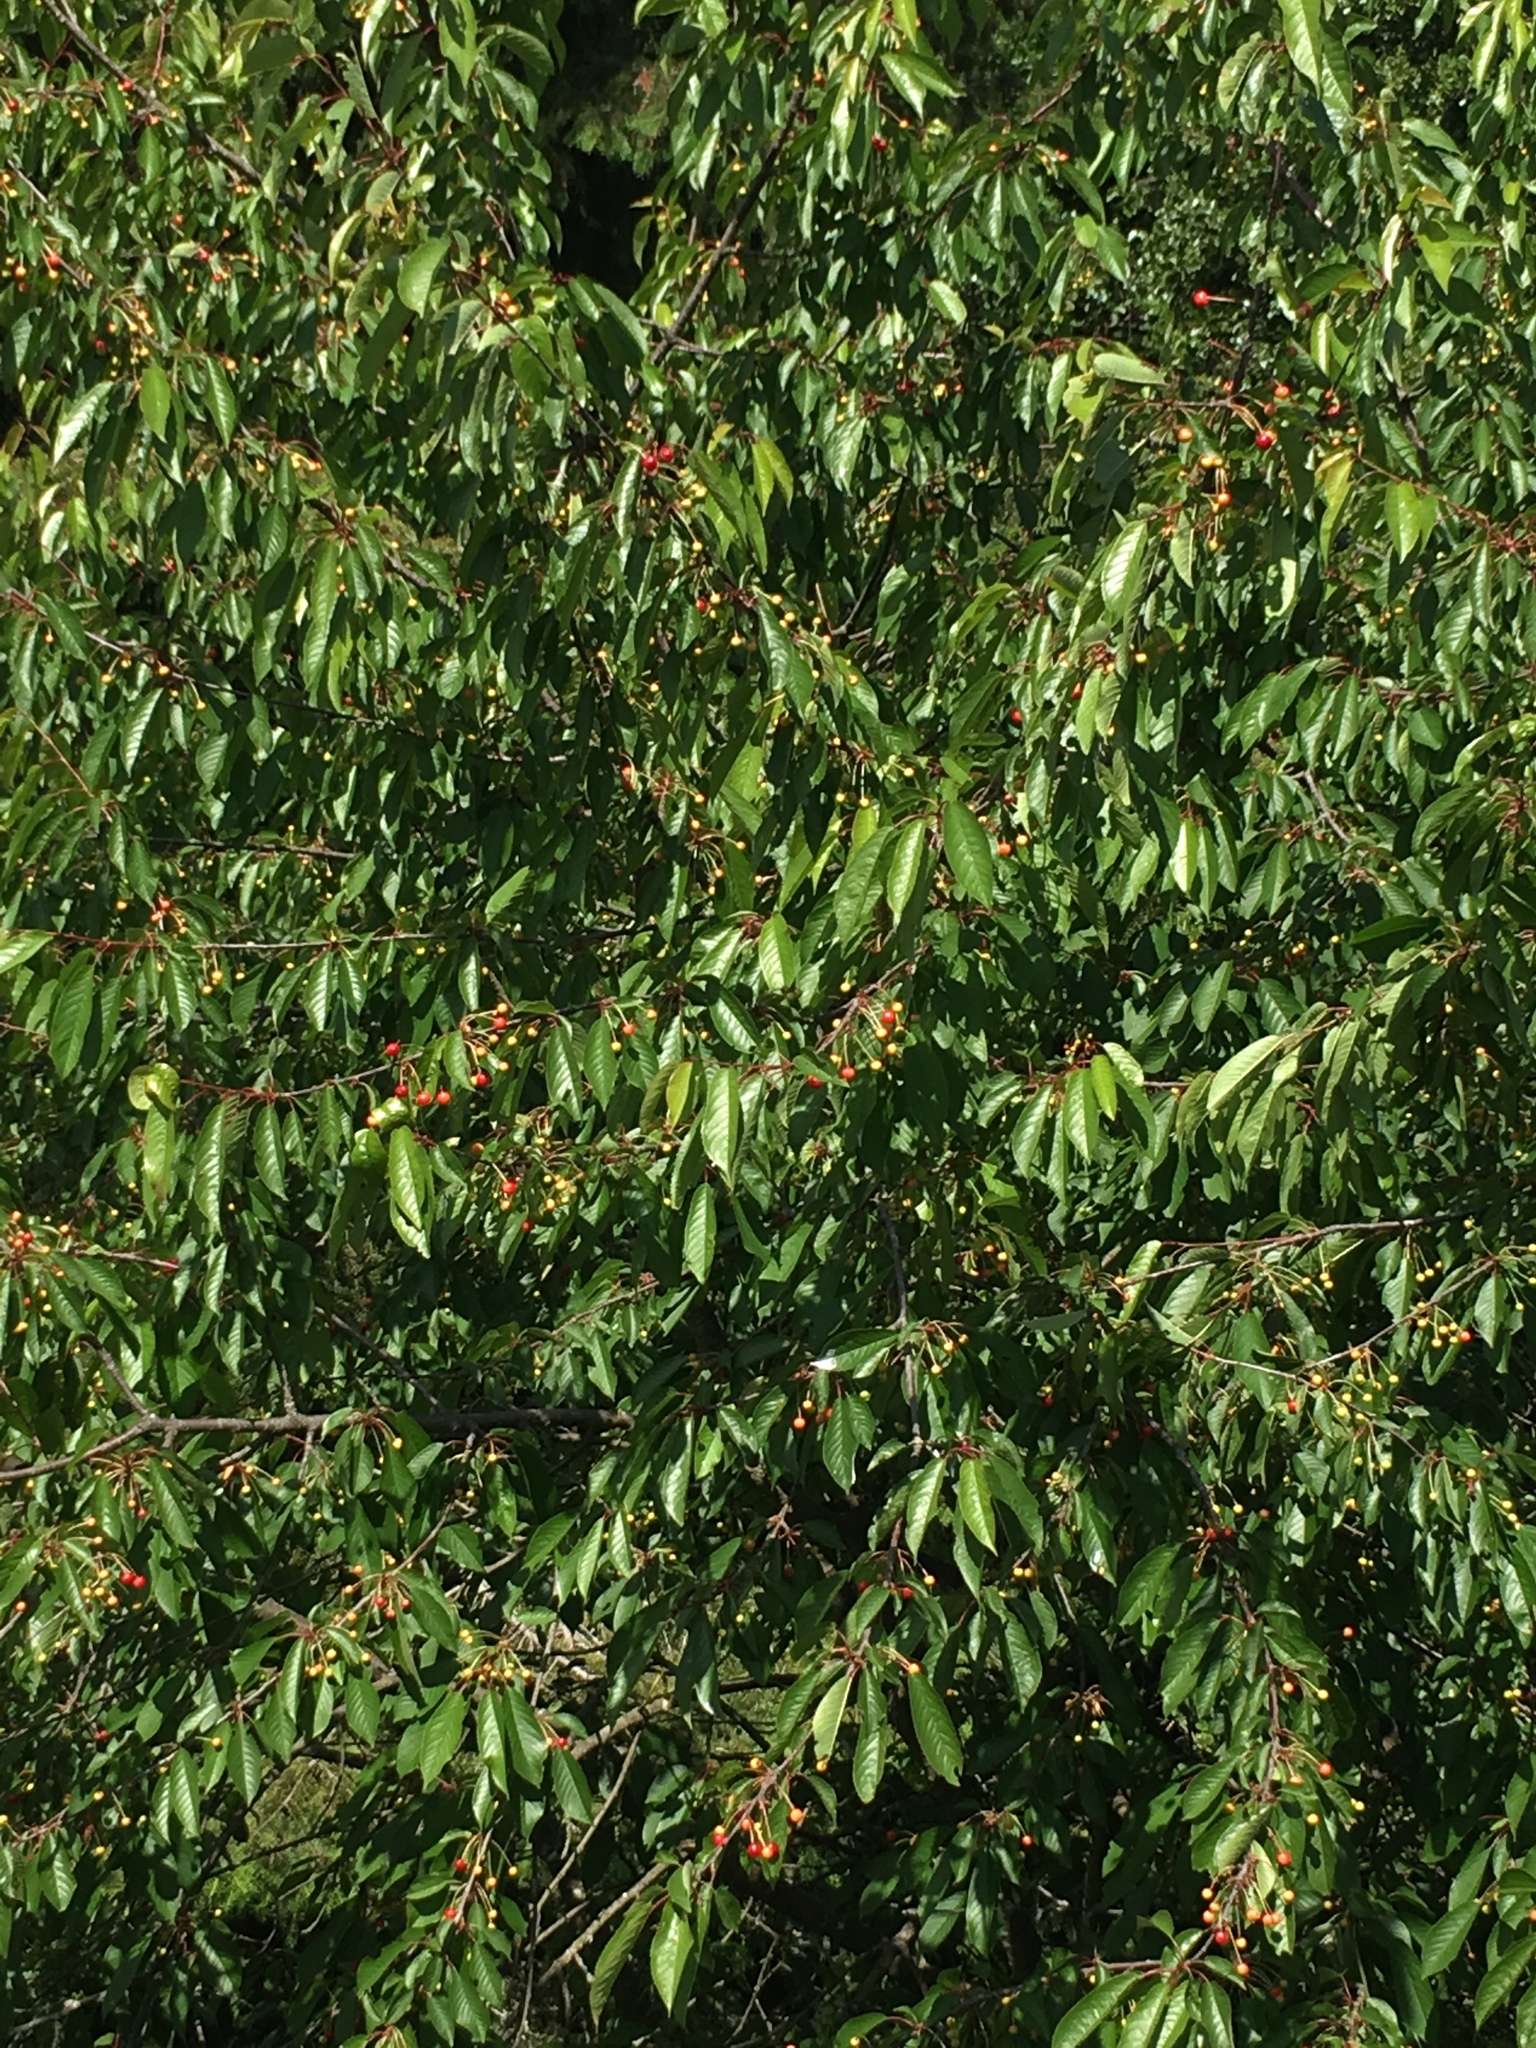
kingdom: Plantae
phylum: Tracheophyta
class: Magnoliopsida
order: Rosales
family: Rosaceae
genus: Prunus
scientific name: Prunus avium
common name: Sweet cherry
